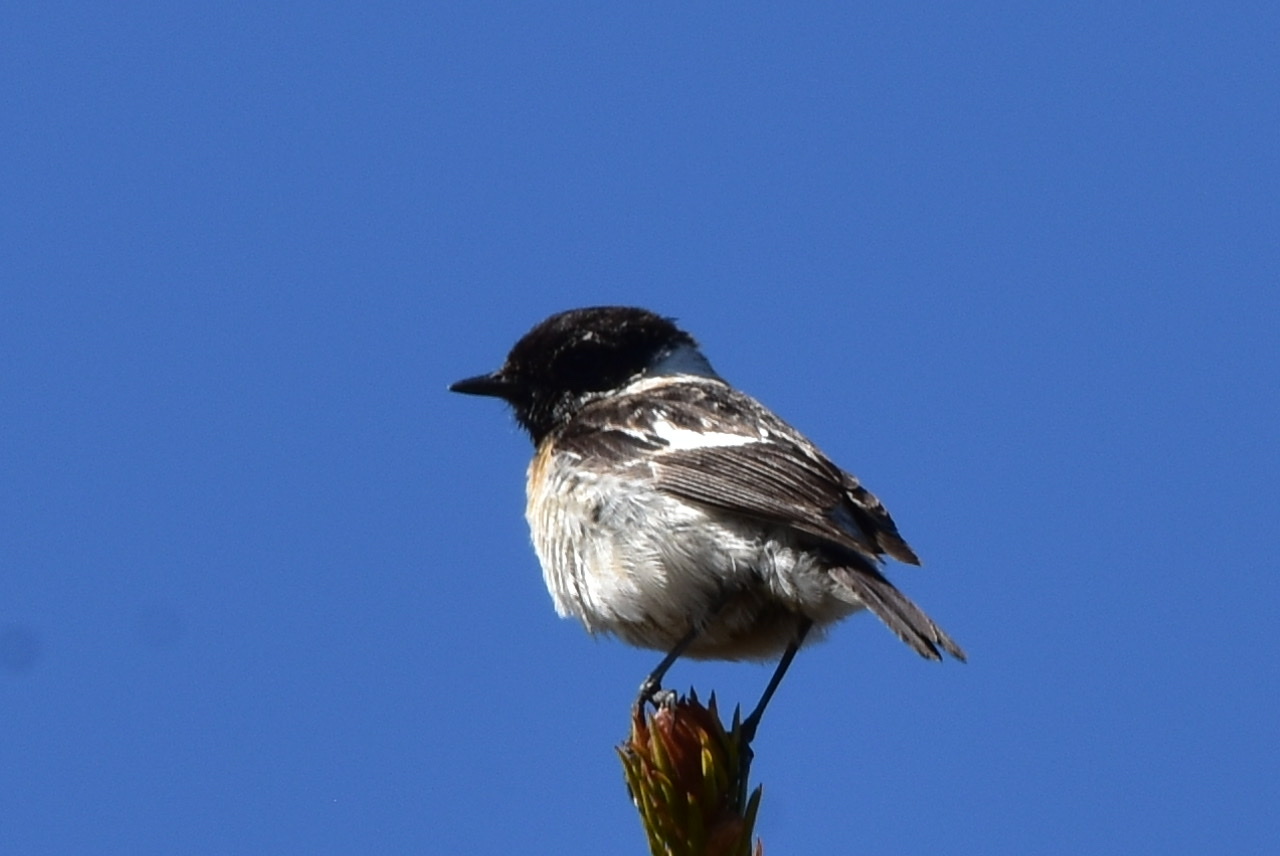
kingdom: Animalia
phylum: Chordata
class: Aves
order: Passeriformes
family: Muscicapidae
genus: Saxicola
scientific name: Saxicola maurus
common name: Siberian stonechat
